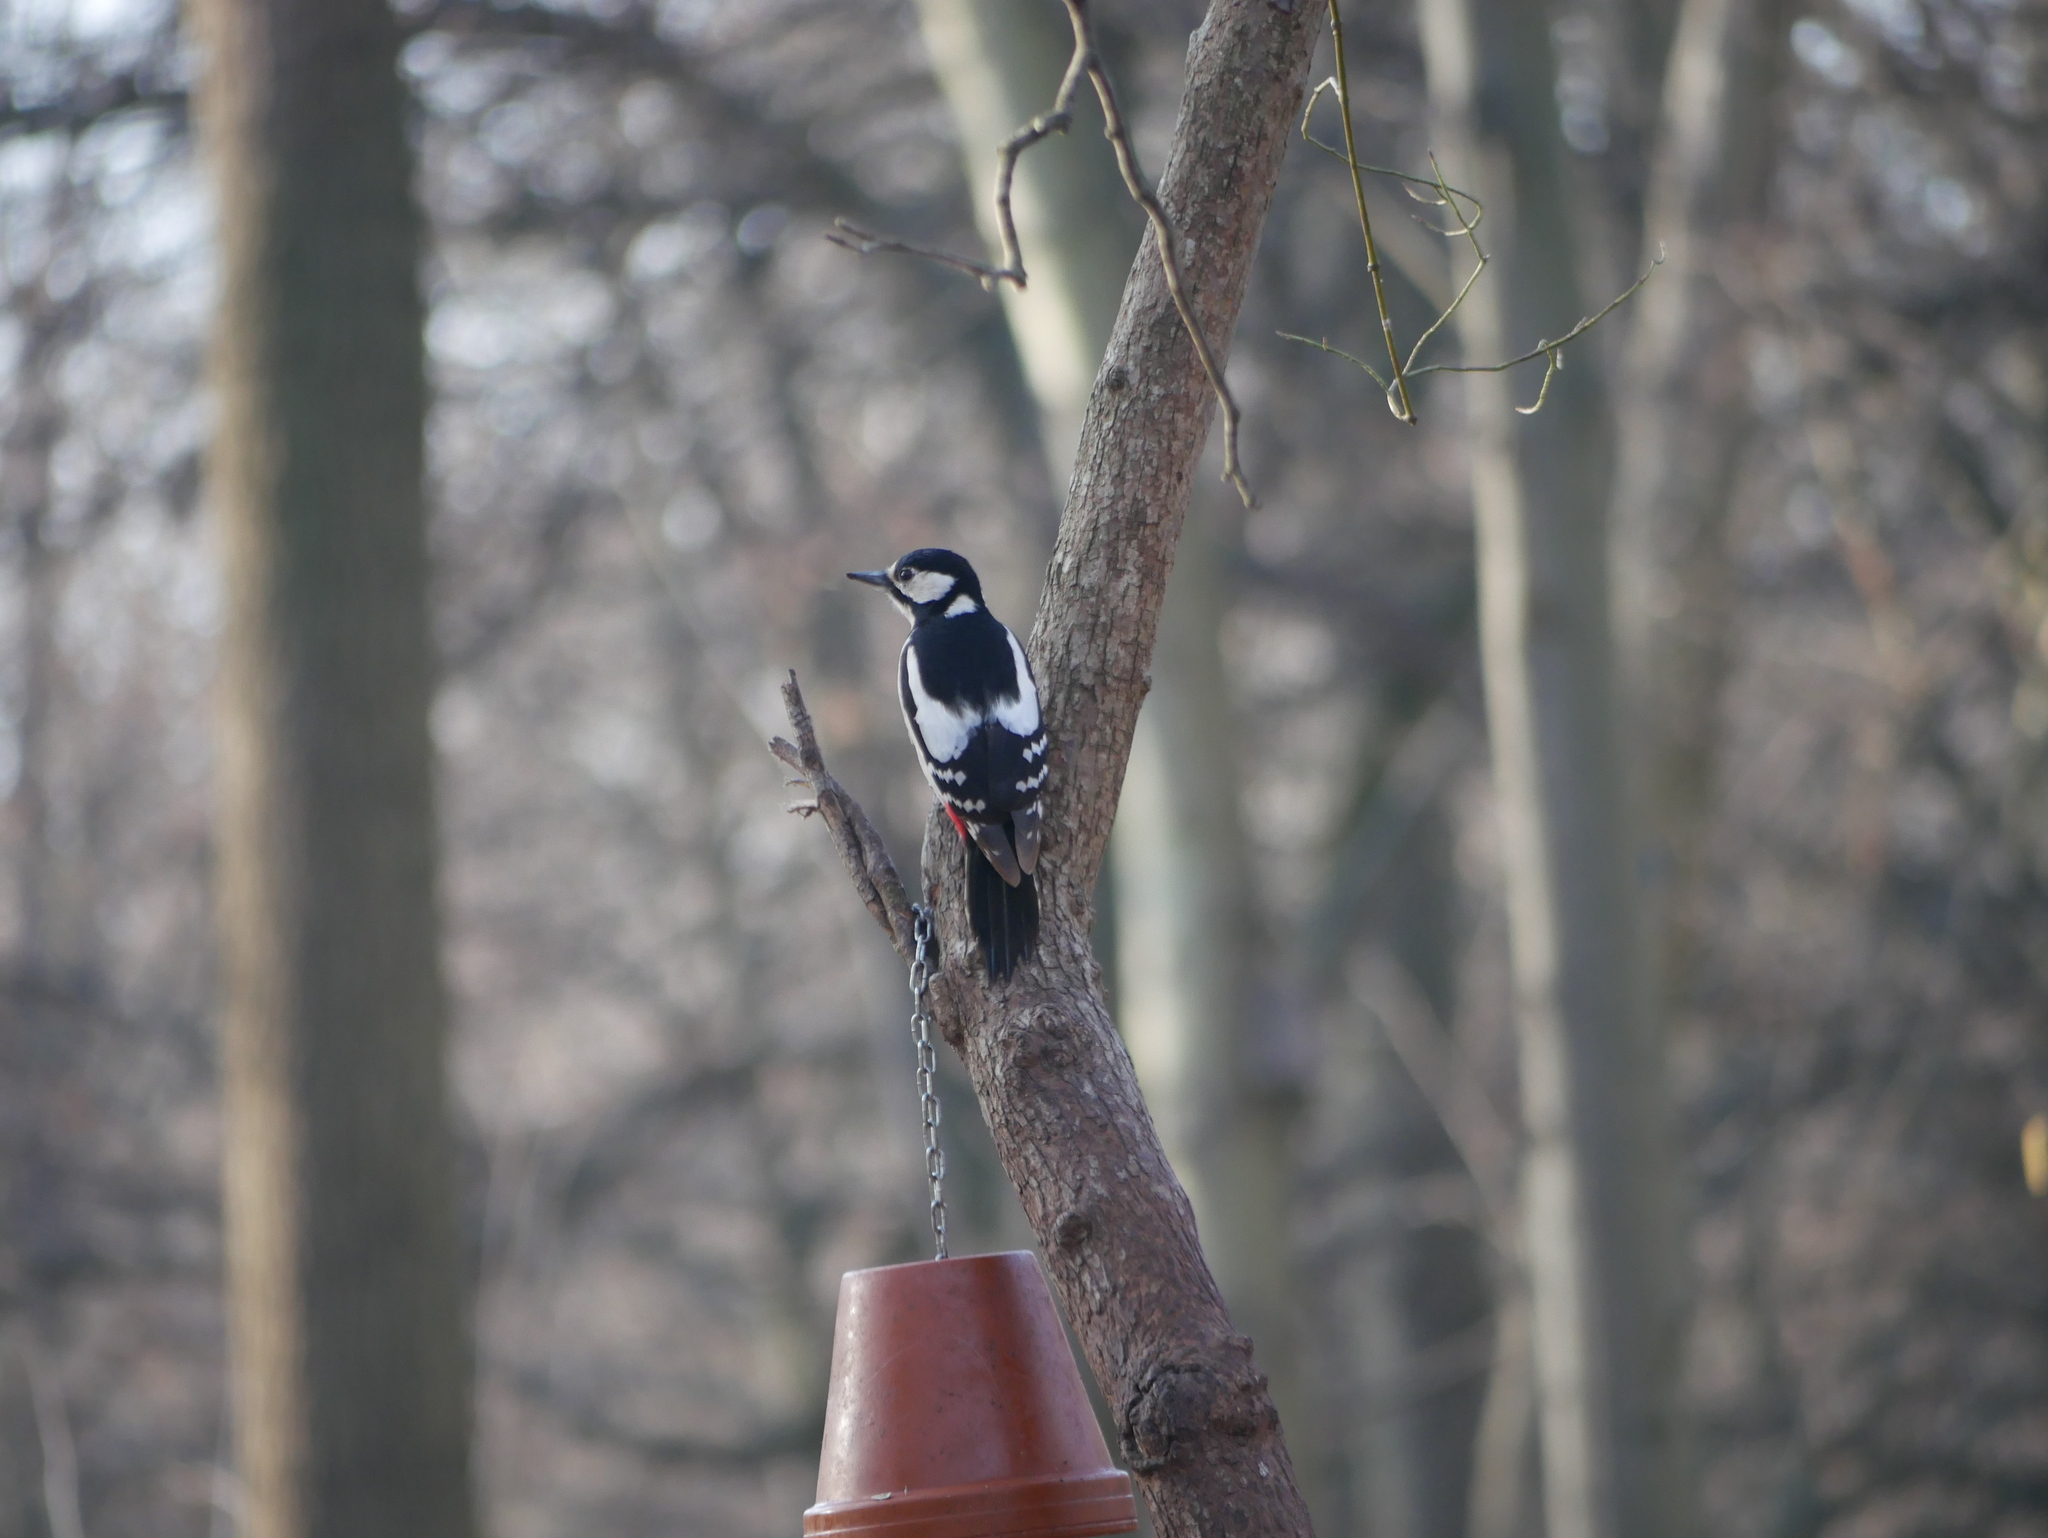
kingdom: Animalia
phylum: Chordata
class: Aves
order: Piciformes
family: Picidae
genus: Dendrocopos
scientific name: Dendrocopos major
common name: Great spotted woodpecker
